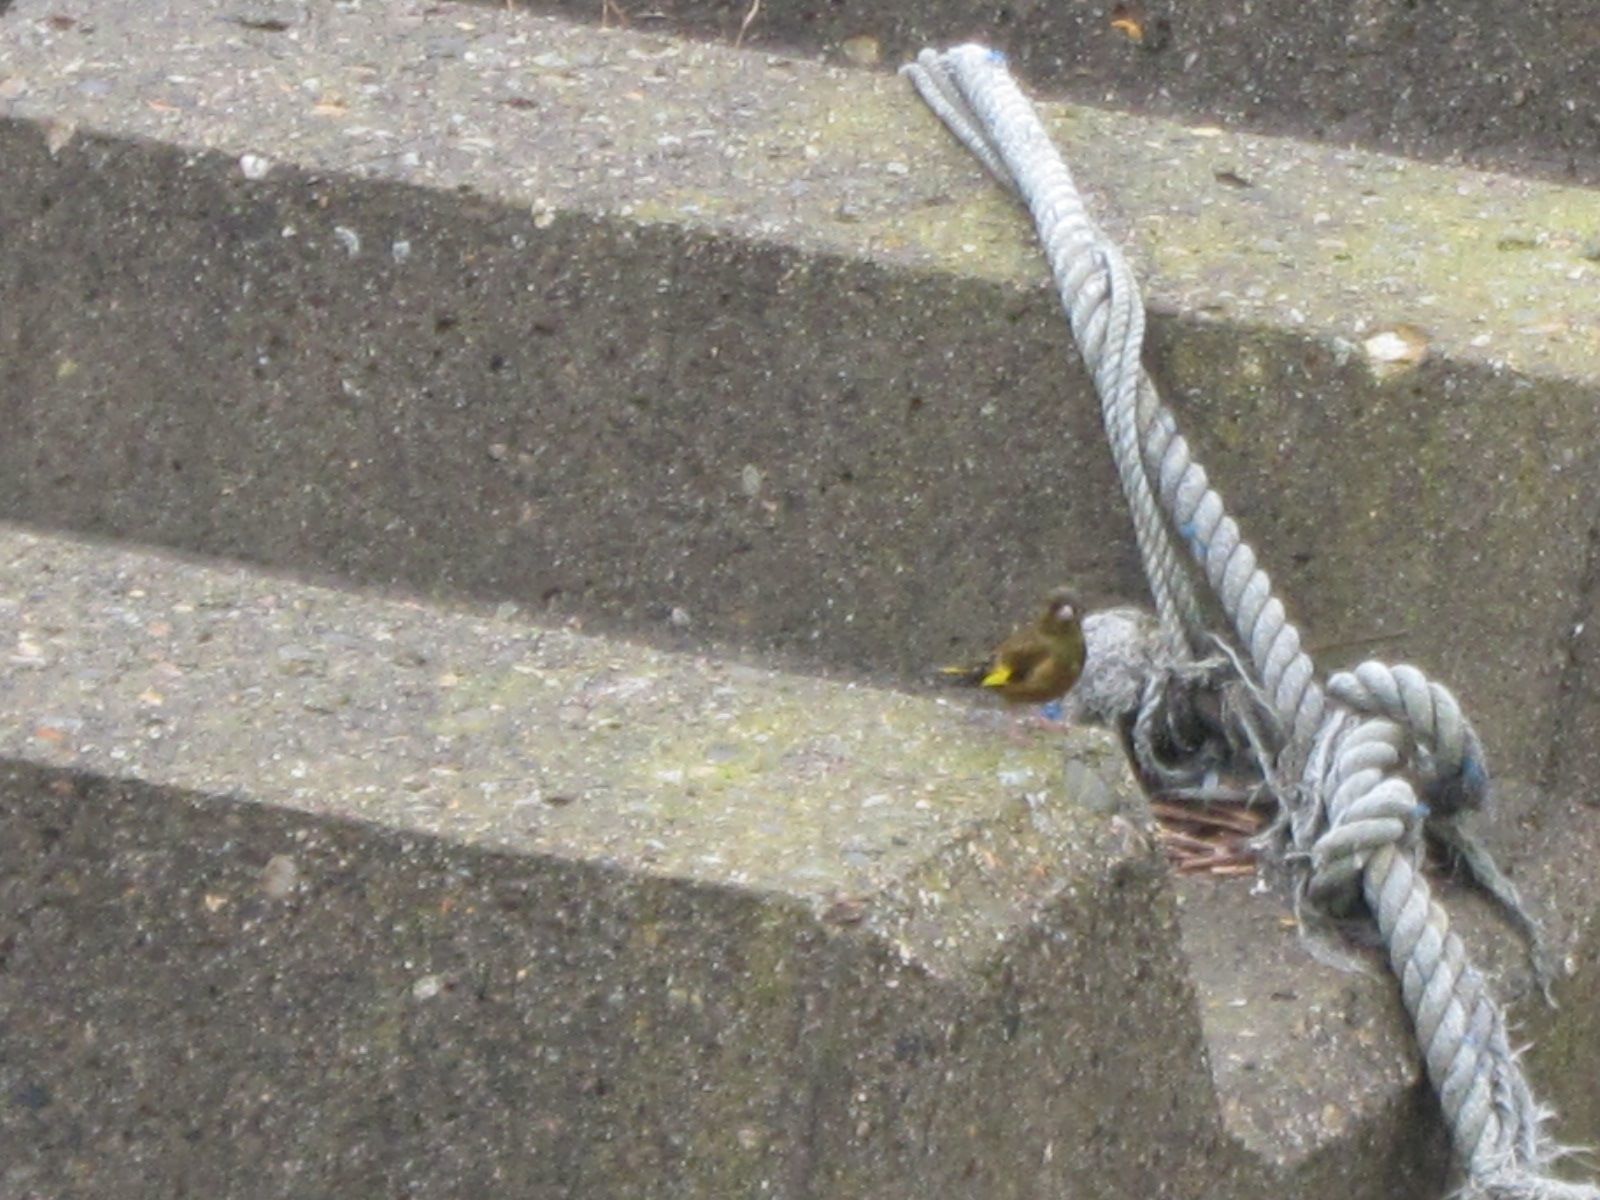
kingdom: Plantae
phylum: Tracheophyta
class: Liliopsida
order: Poales
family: Poaceae
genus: Chloris
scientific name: Chloris sinica
